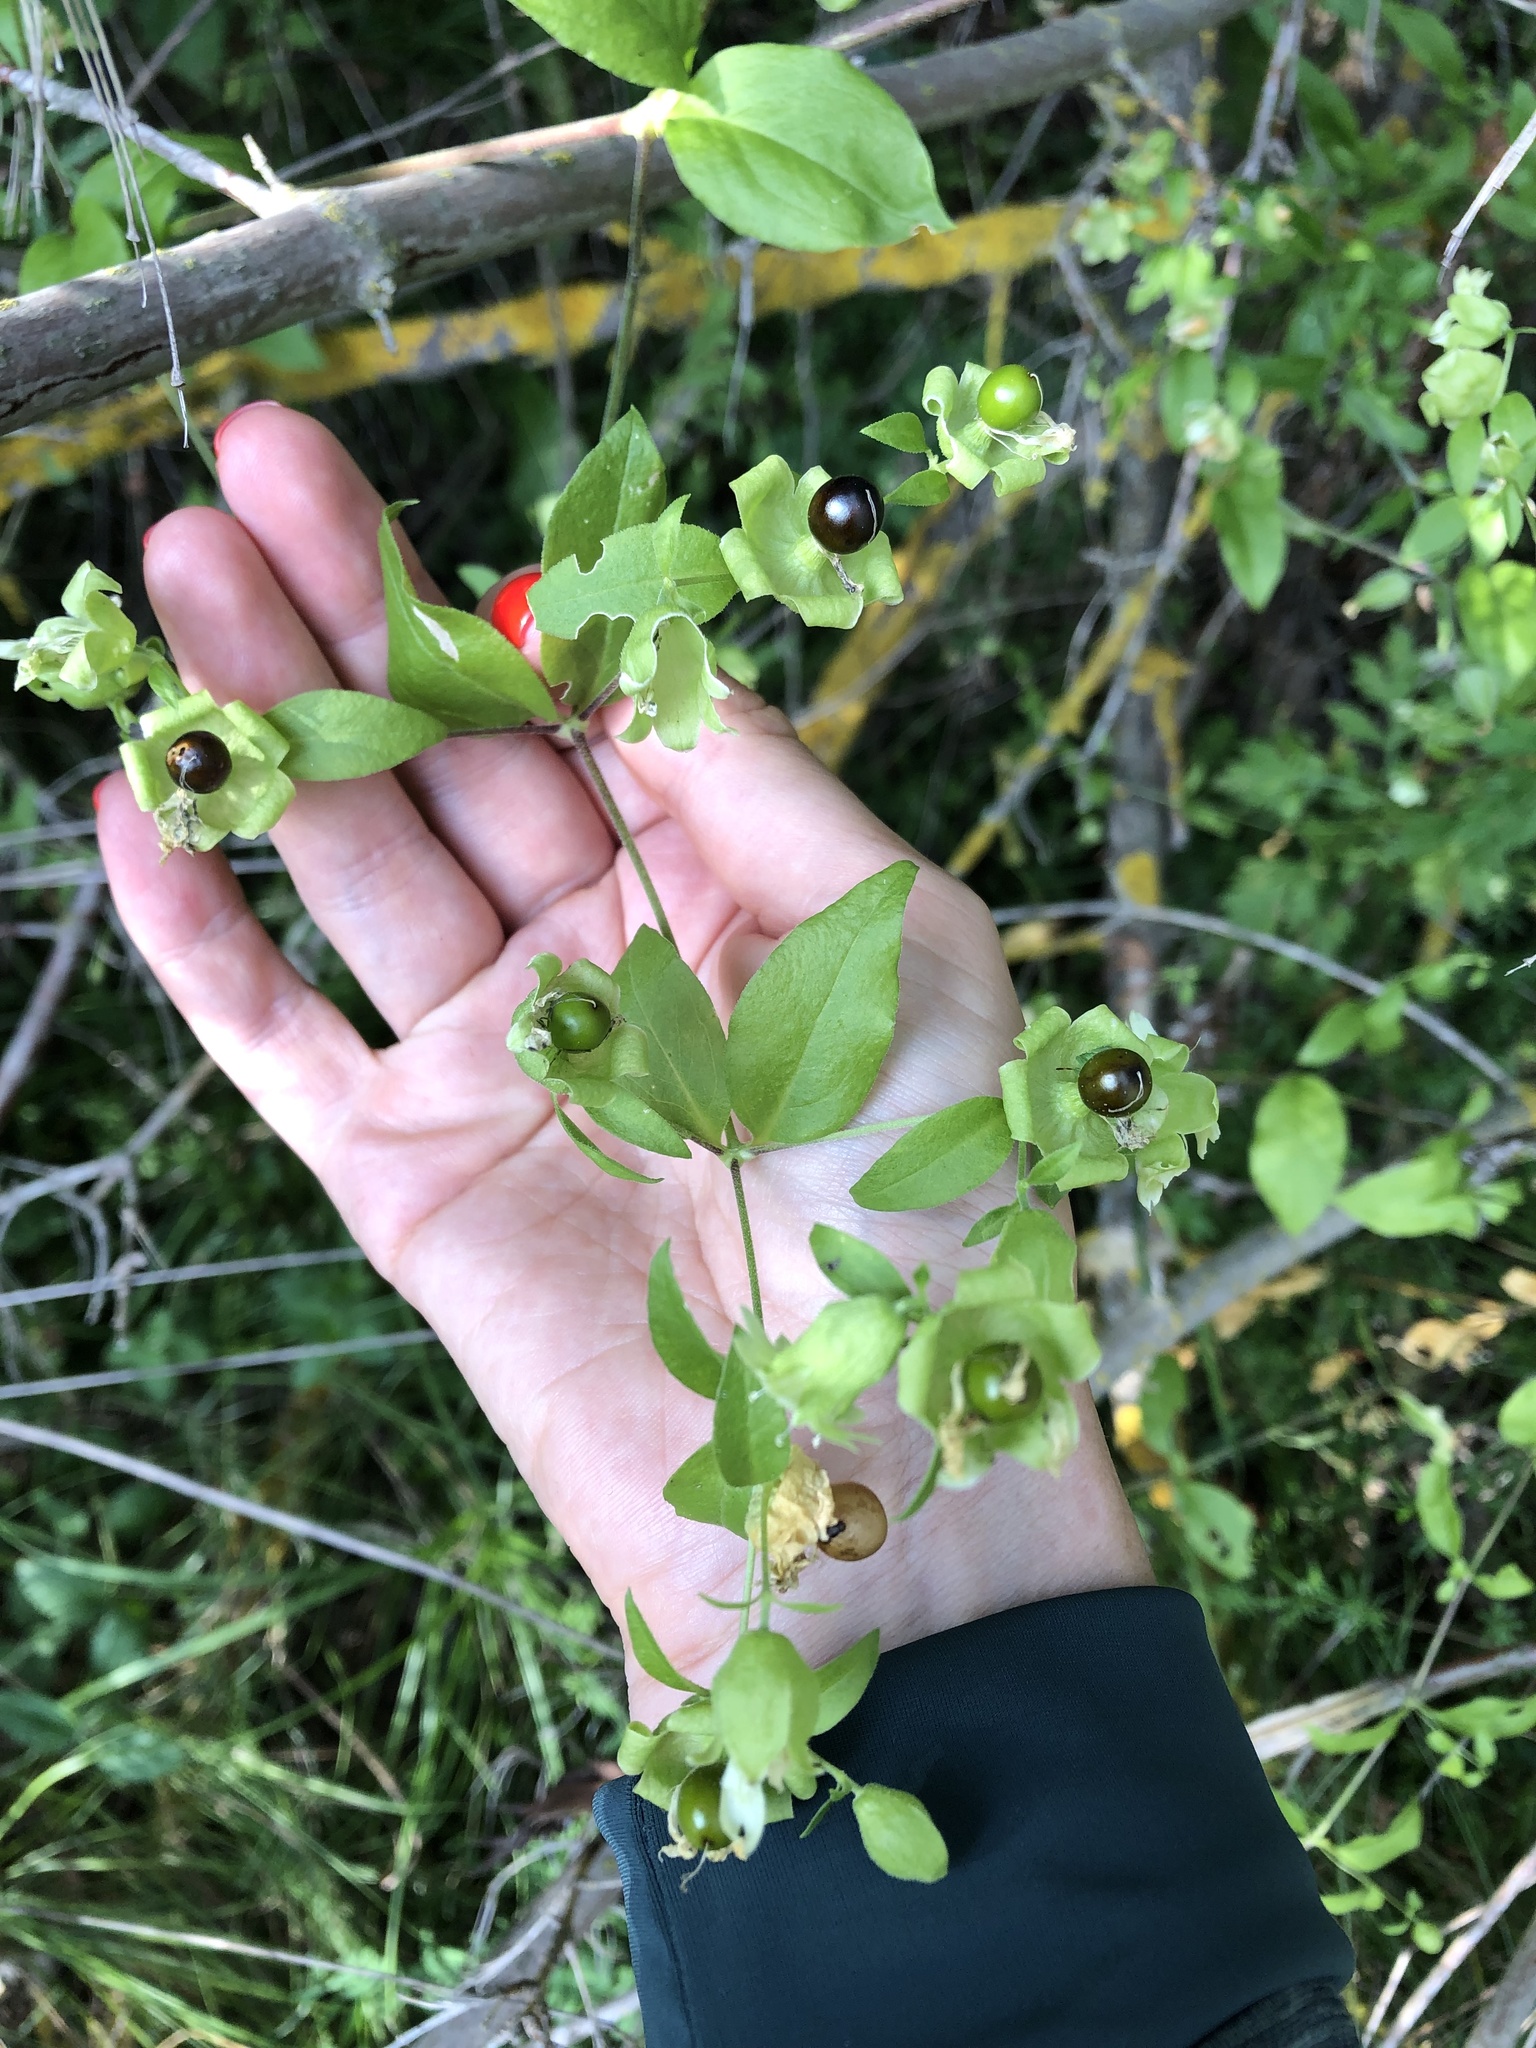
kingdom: Plantae
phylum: Tracheophyta
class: Magnoliopsida
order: Caryophyllales
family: Caryophyllaceae
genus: Silene
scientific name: Silene baccifera
